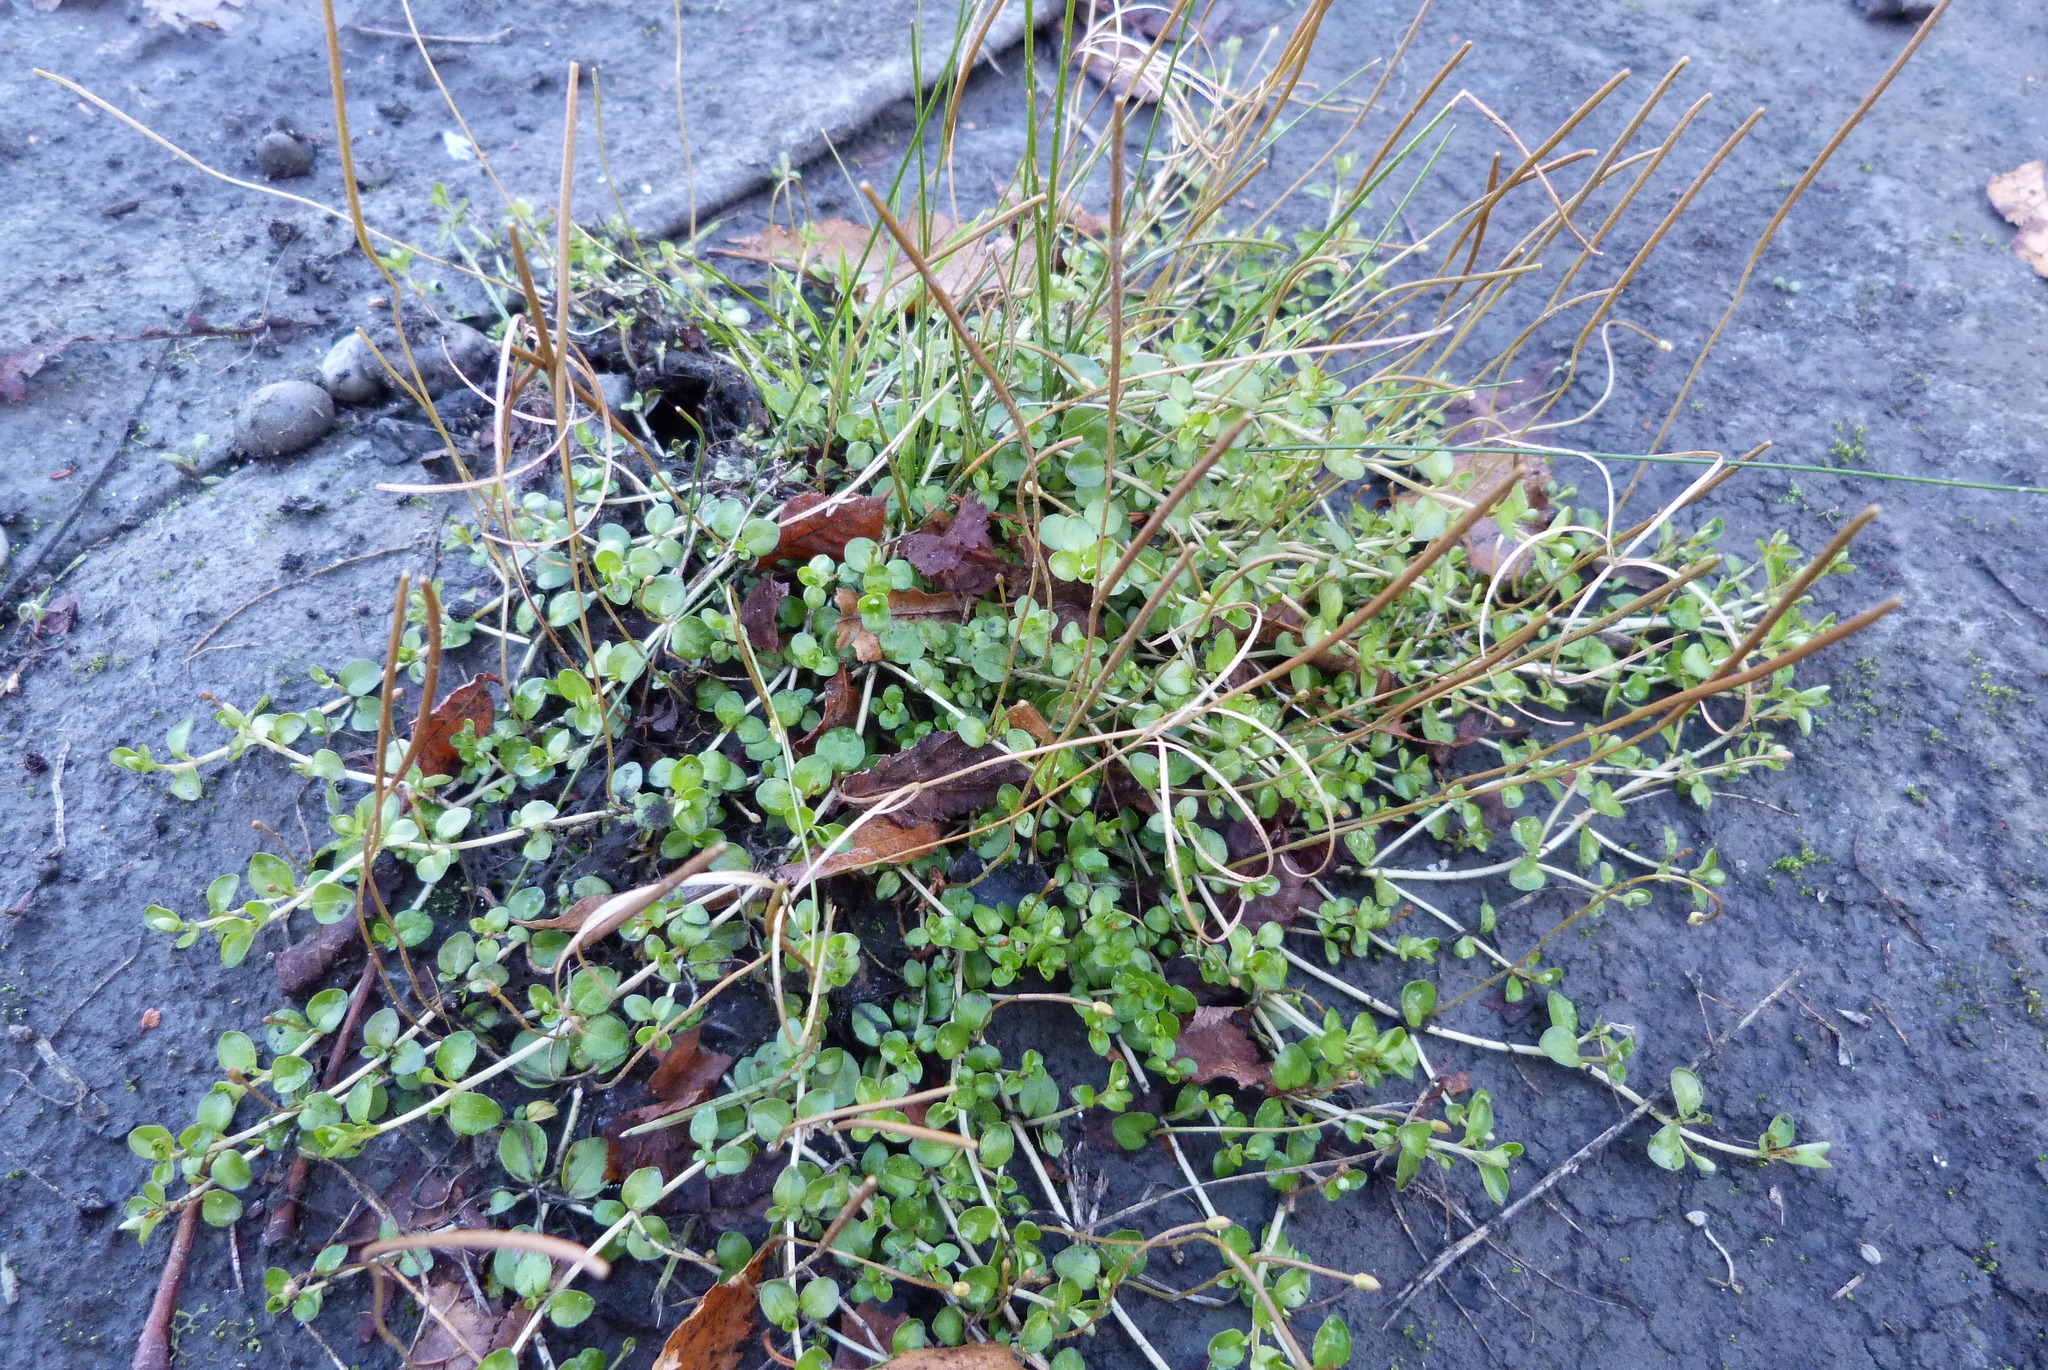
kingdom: Plantae
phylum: Tracheophyta
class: Magnoliopsida
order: Myrtales
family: Onagraceae
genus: Epilobium
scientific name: Epilobium brunnescens
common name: New zealand willowherb
